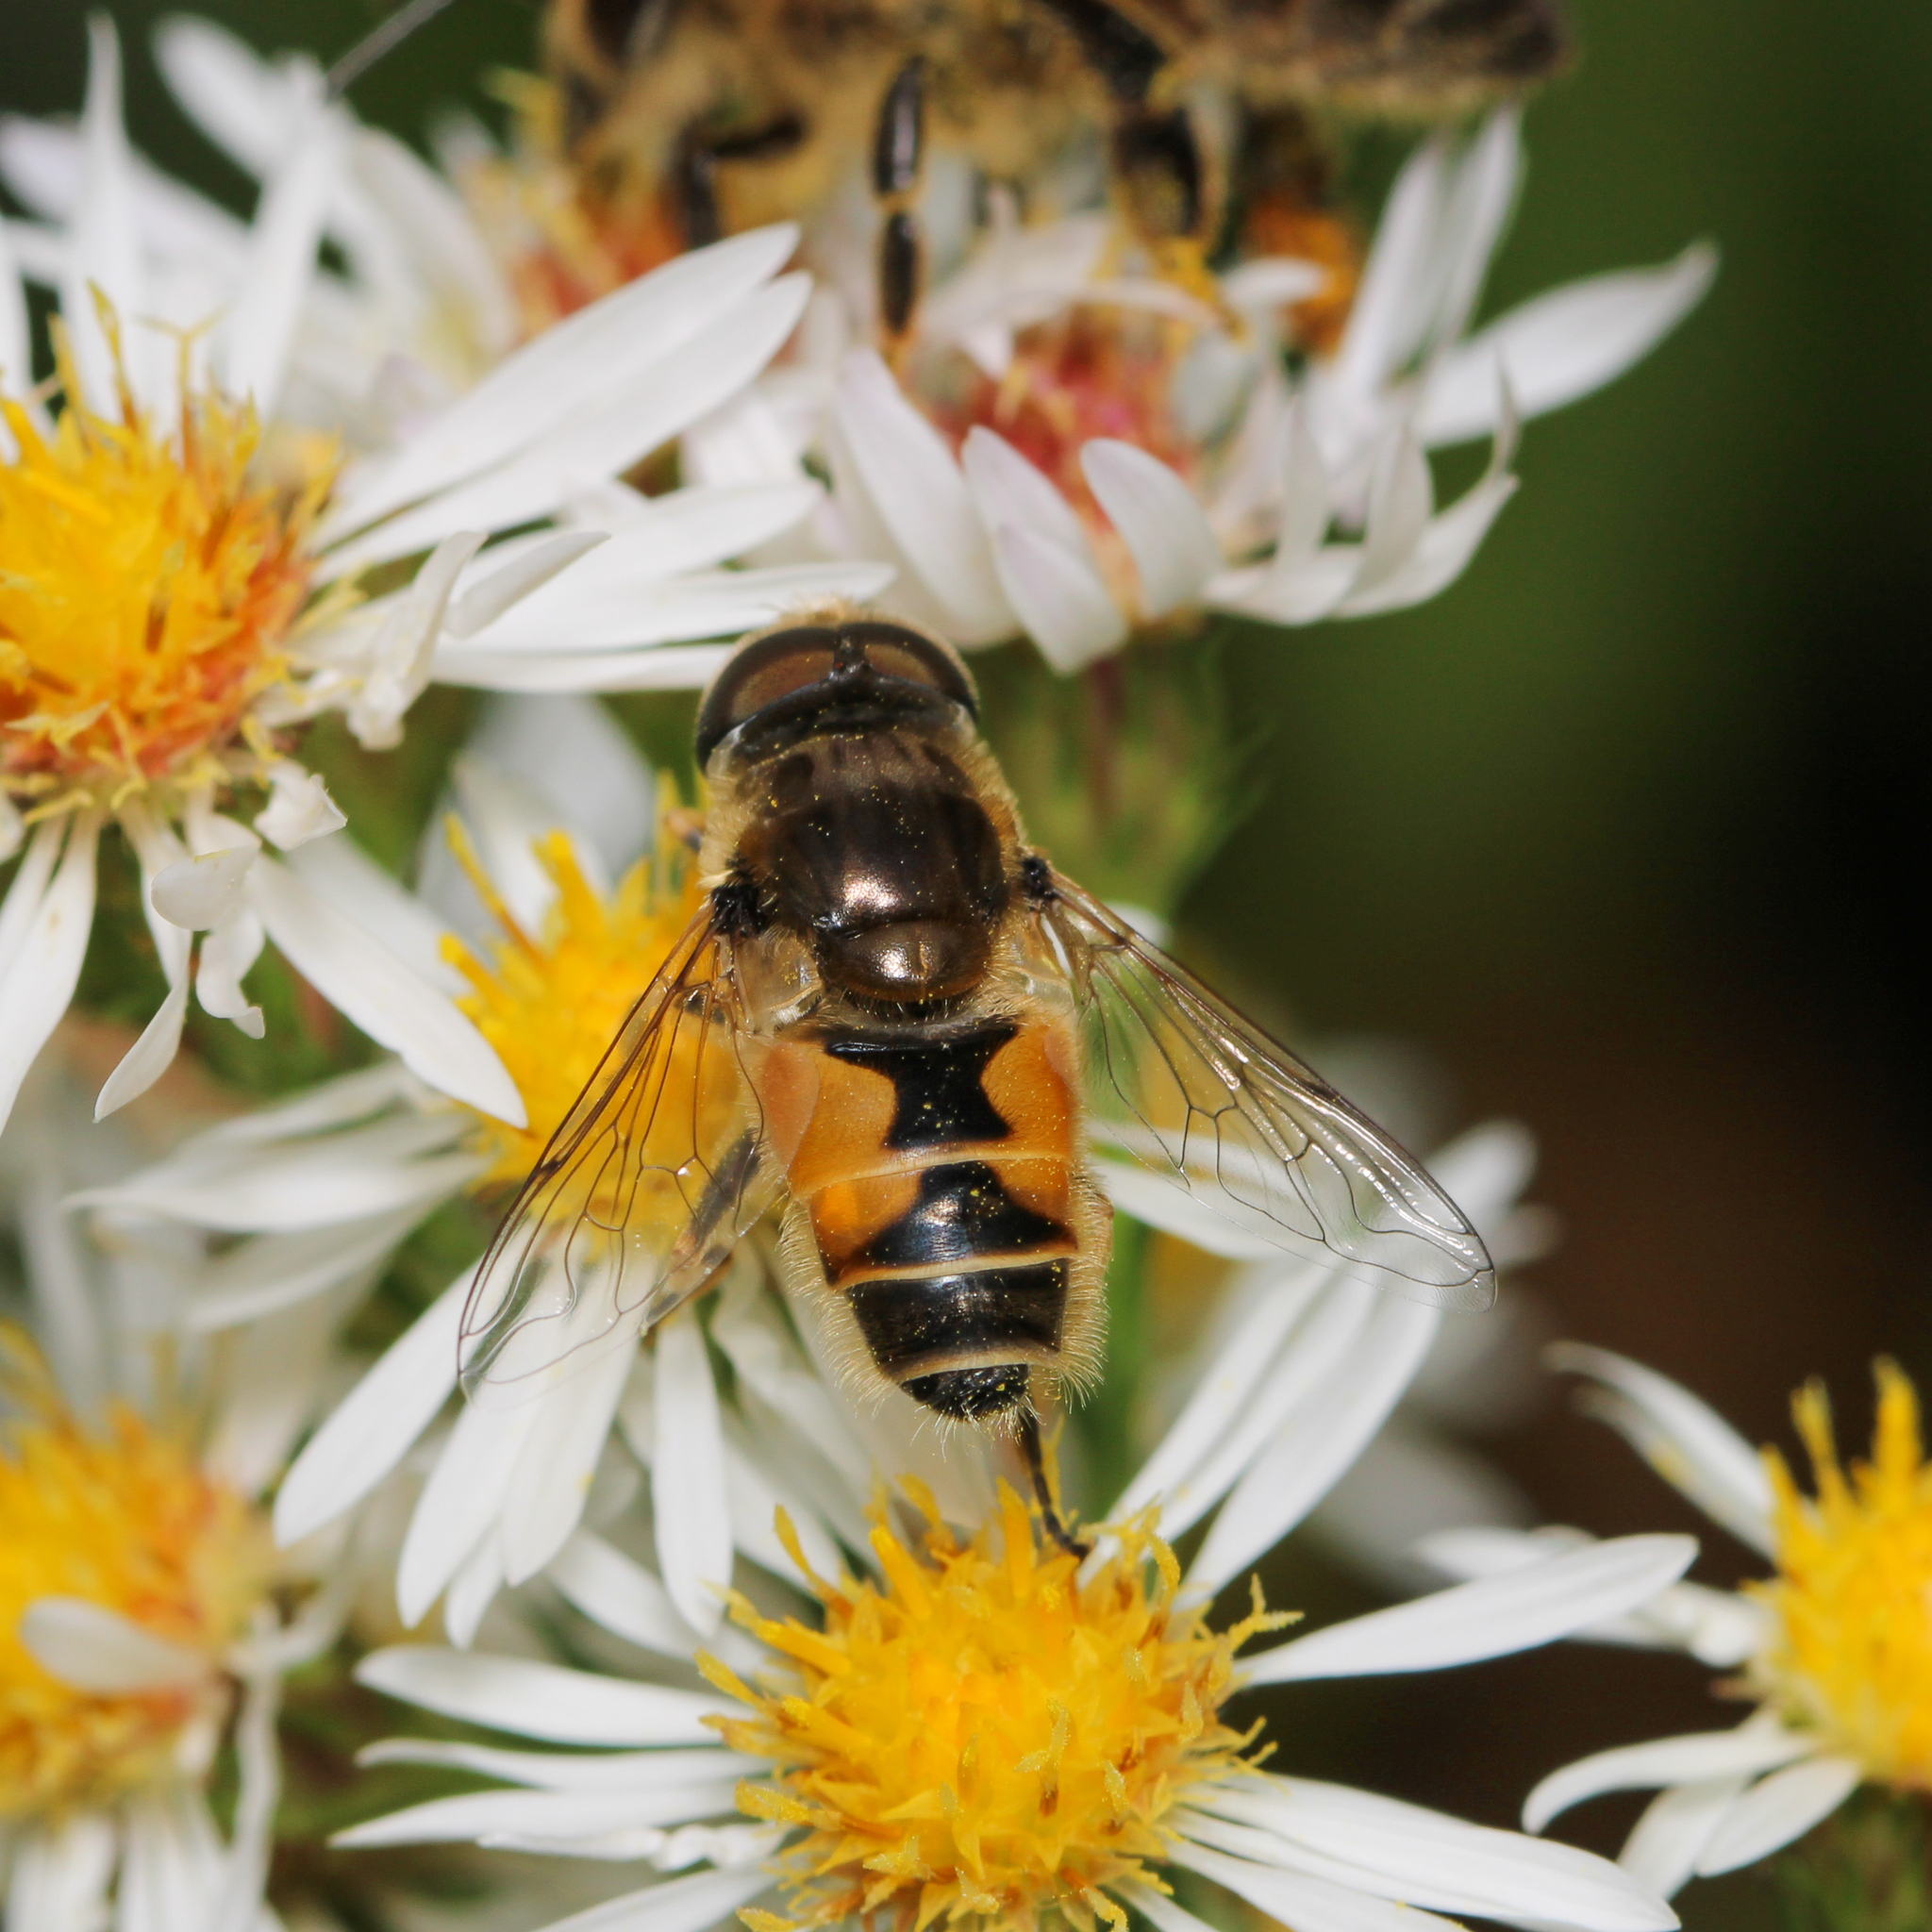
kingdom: Animalia
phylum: Arthropoda
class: Insecta
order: Diptera
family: Syrphidae
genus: Eristalis
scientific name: Eristalis arbustorum
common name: Hover fly
